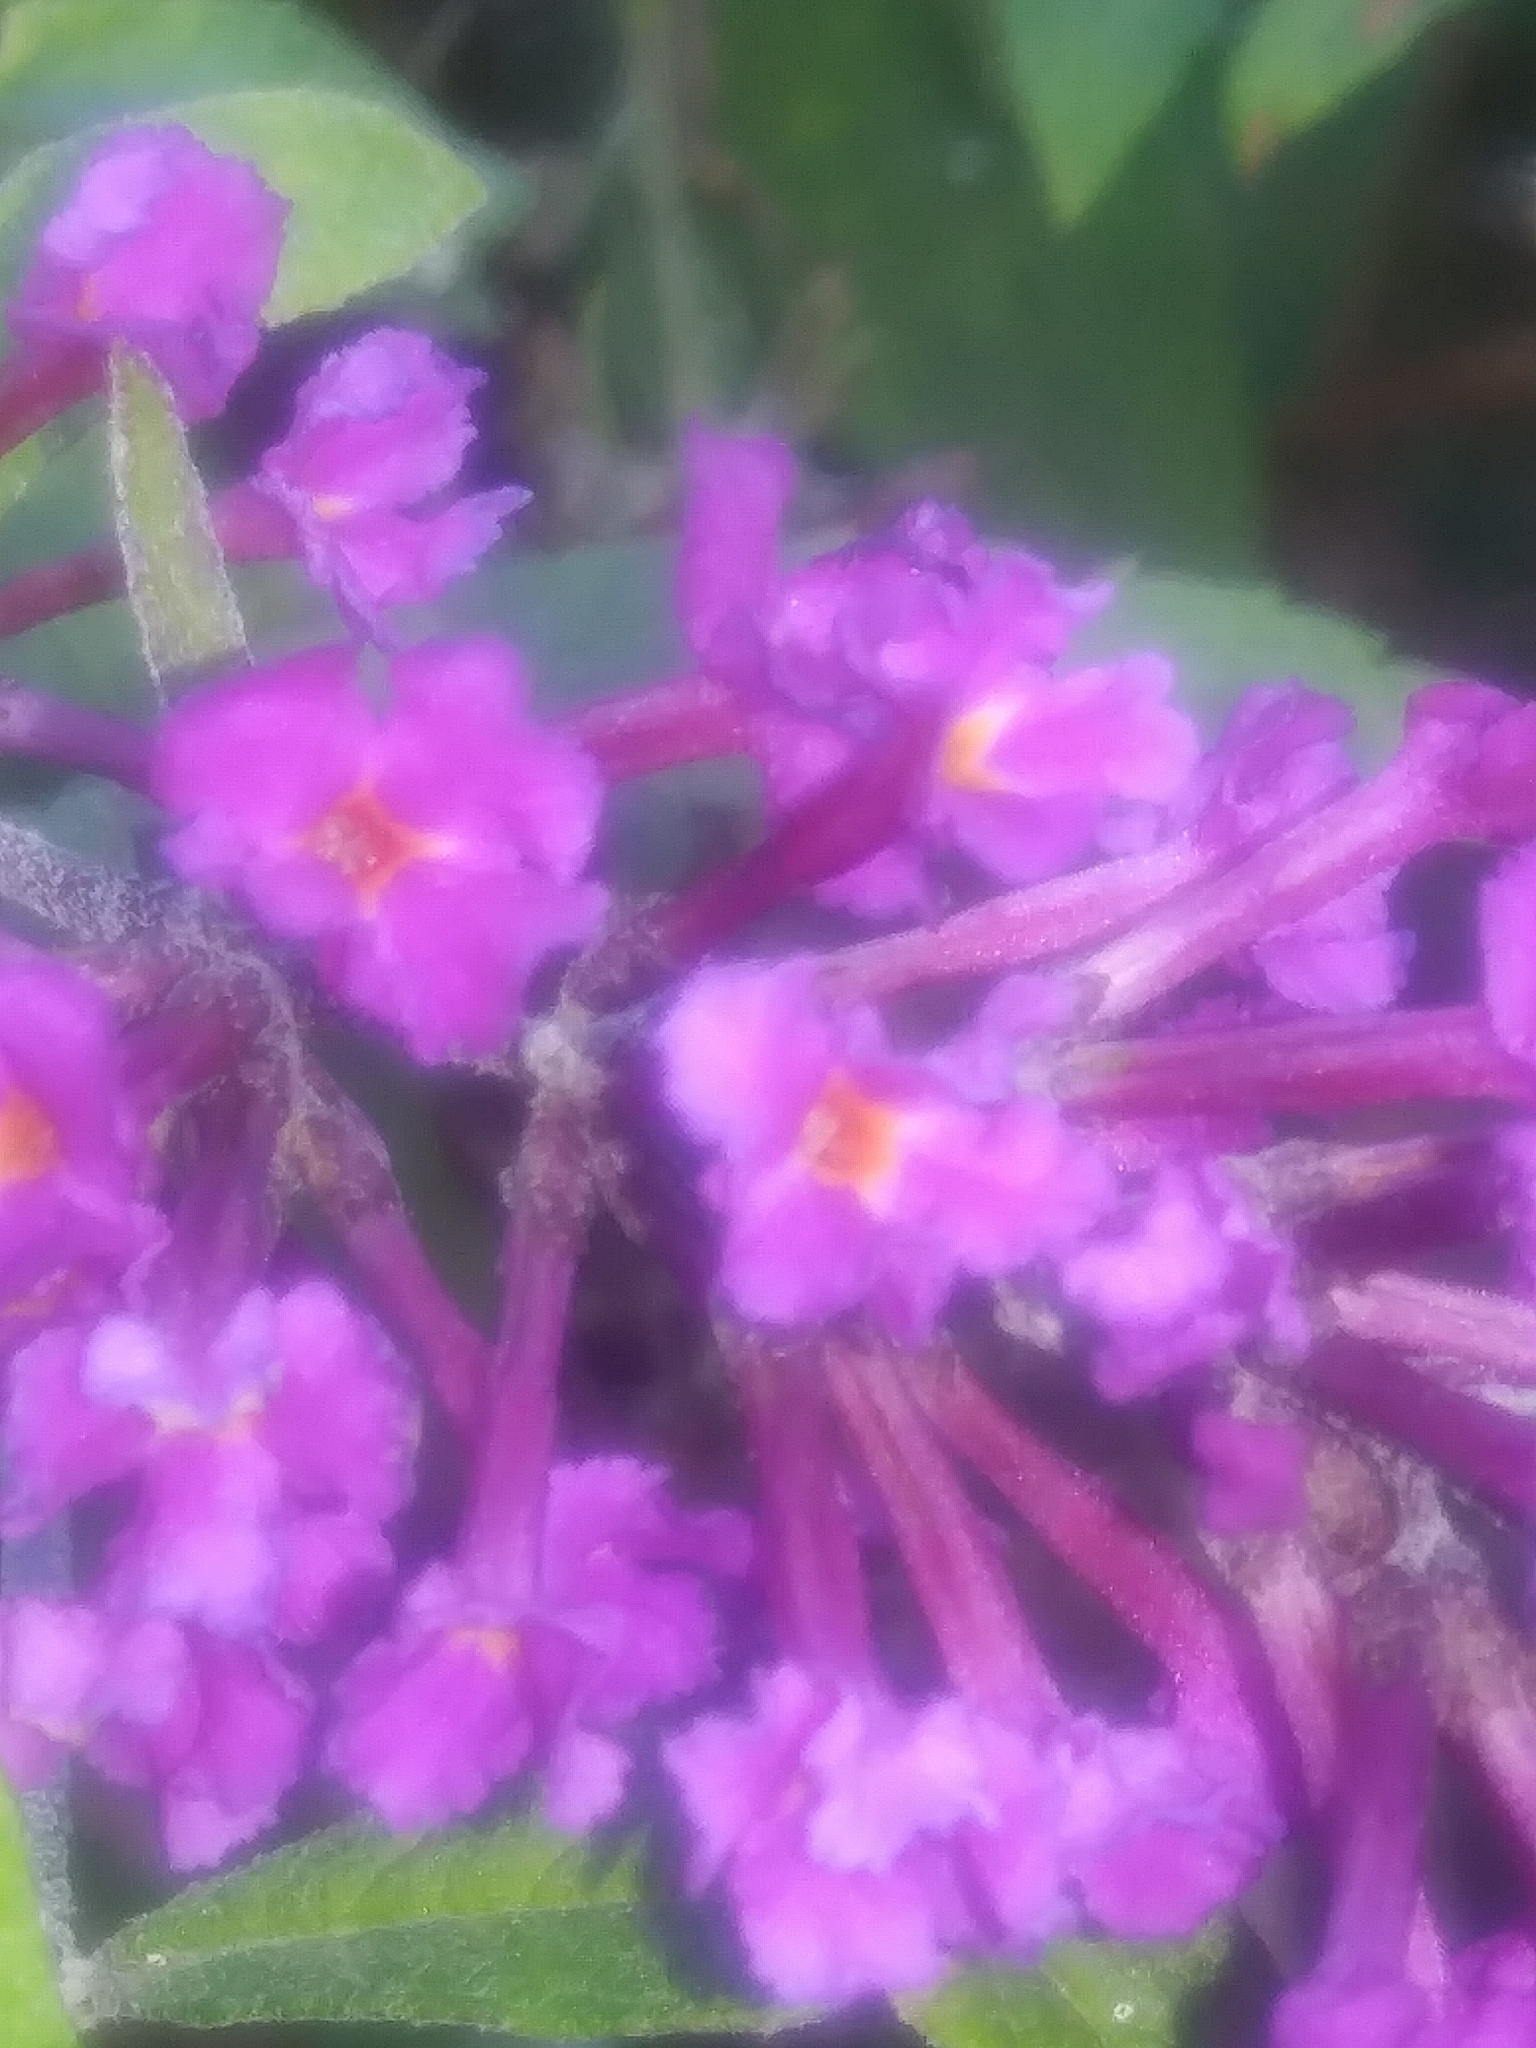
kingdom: Plantae
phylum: Tracheophyta
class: Magnoliopsida
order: Lamiales
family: Scrophulariaceae
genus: Buddleja
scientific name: Buddleja davidii
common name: Butterfly-bush
